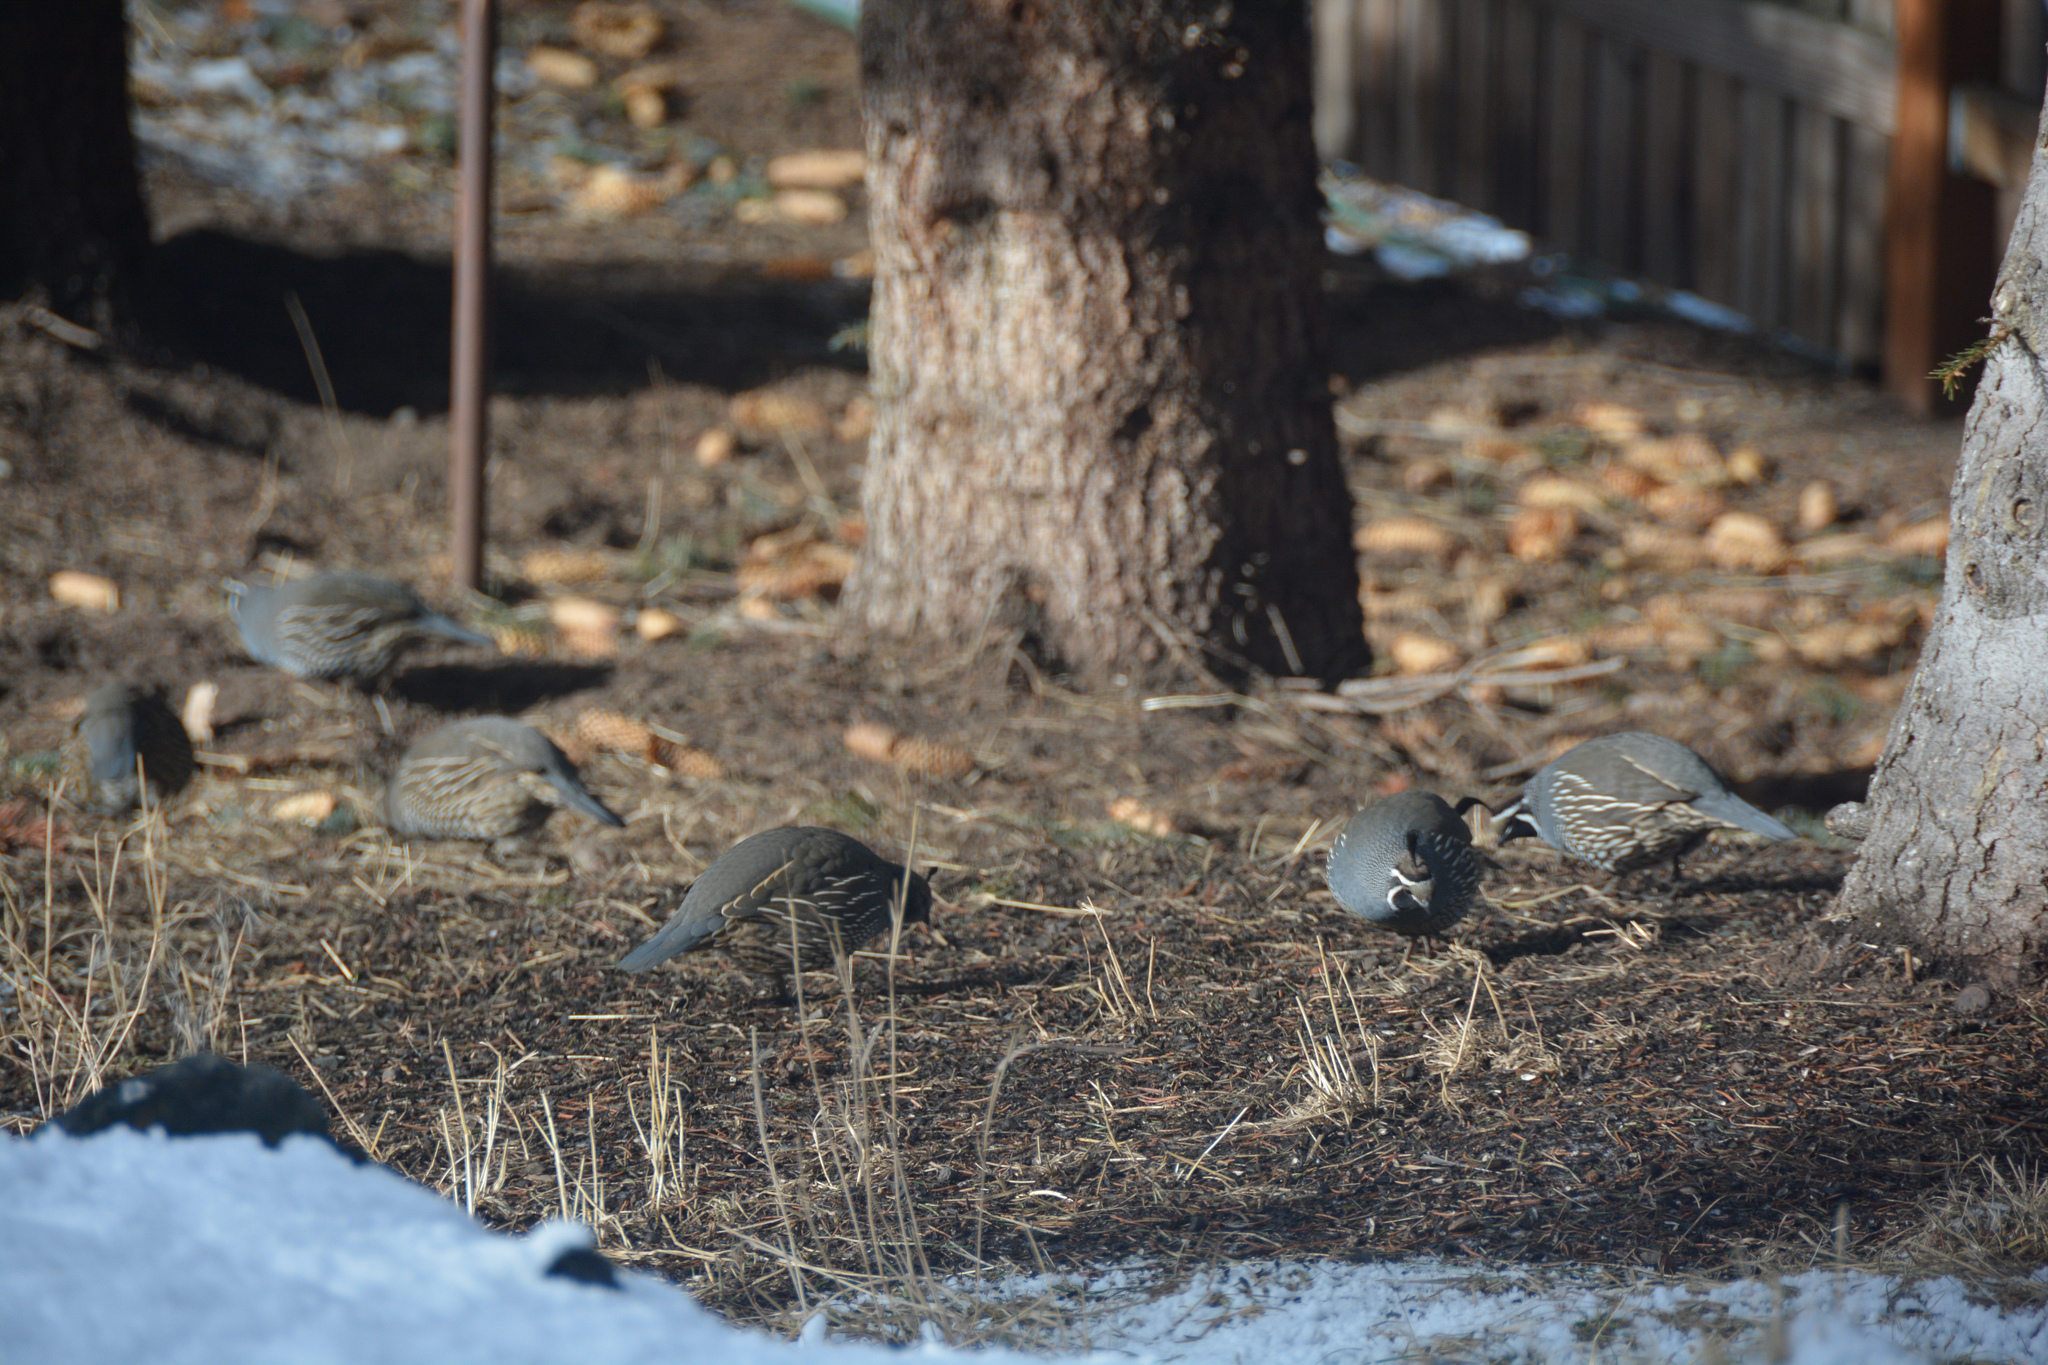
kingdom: Animalia
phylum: Chordata
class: Aves
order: Galliformes
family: Odontophoridae
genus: Callipepla
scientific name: Callipepla californica
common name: California quail
